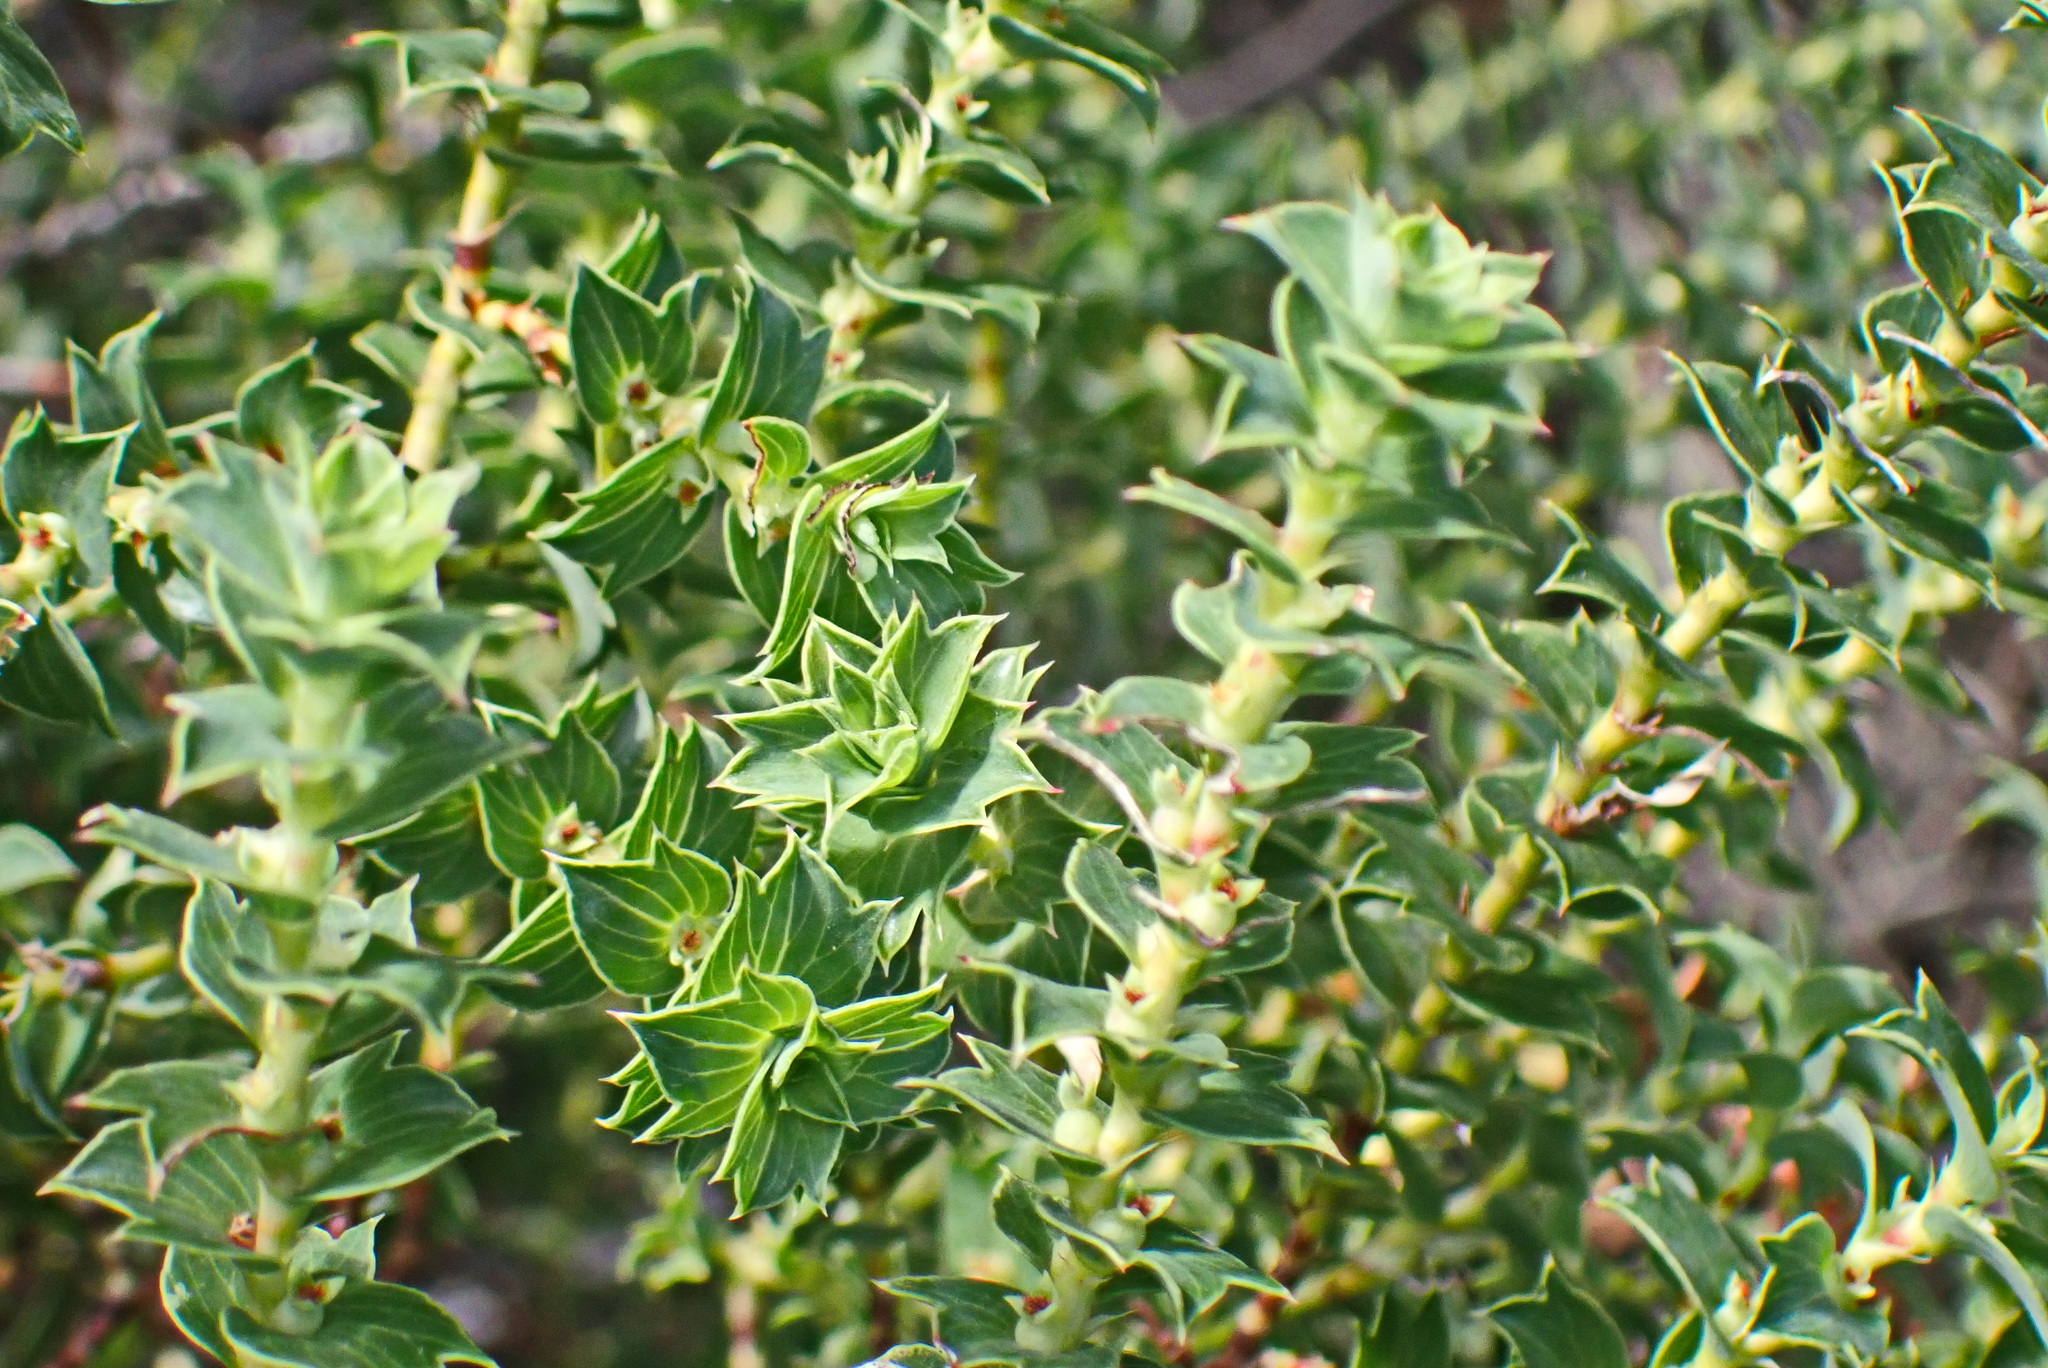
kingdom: Plantae
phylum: Tracheophyta
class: Magnoliopsida
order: Rosales
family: Rosaceae
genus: Cliffortia
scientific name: Cliffortia schlechteri
